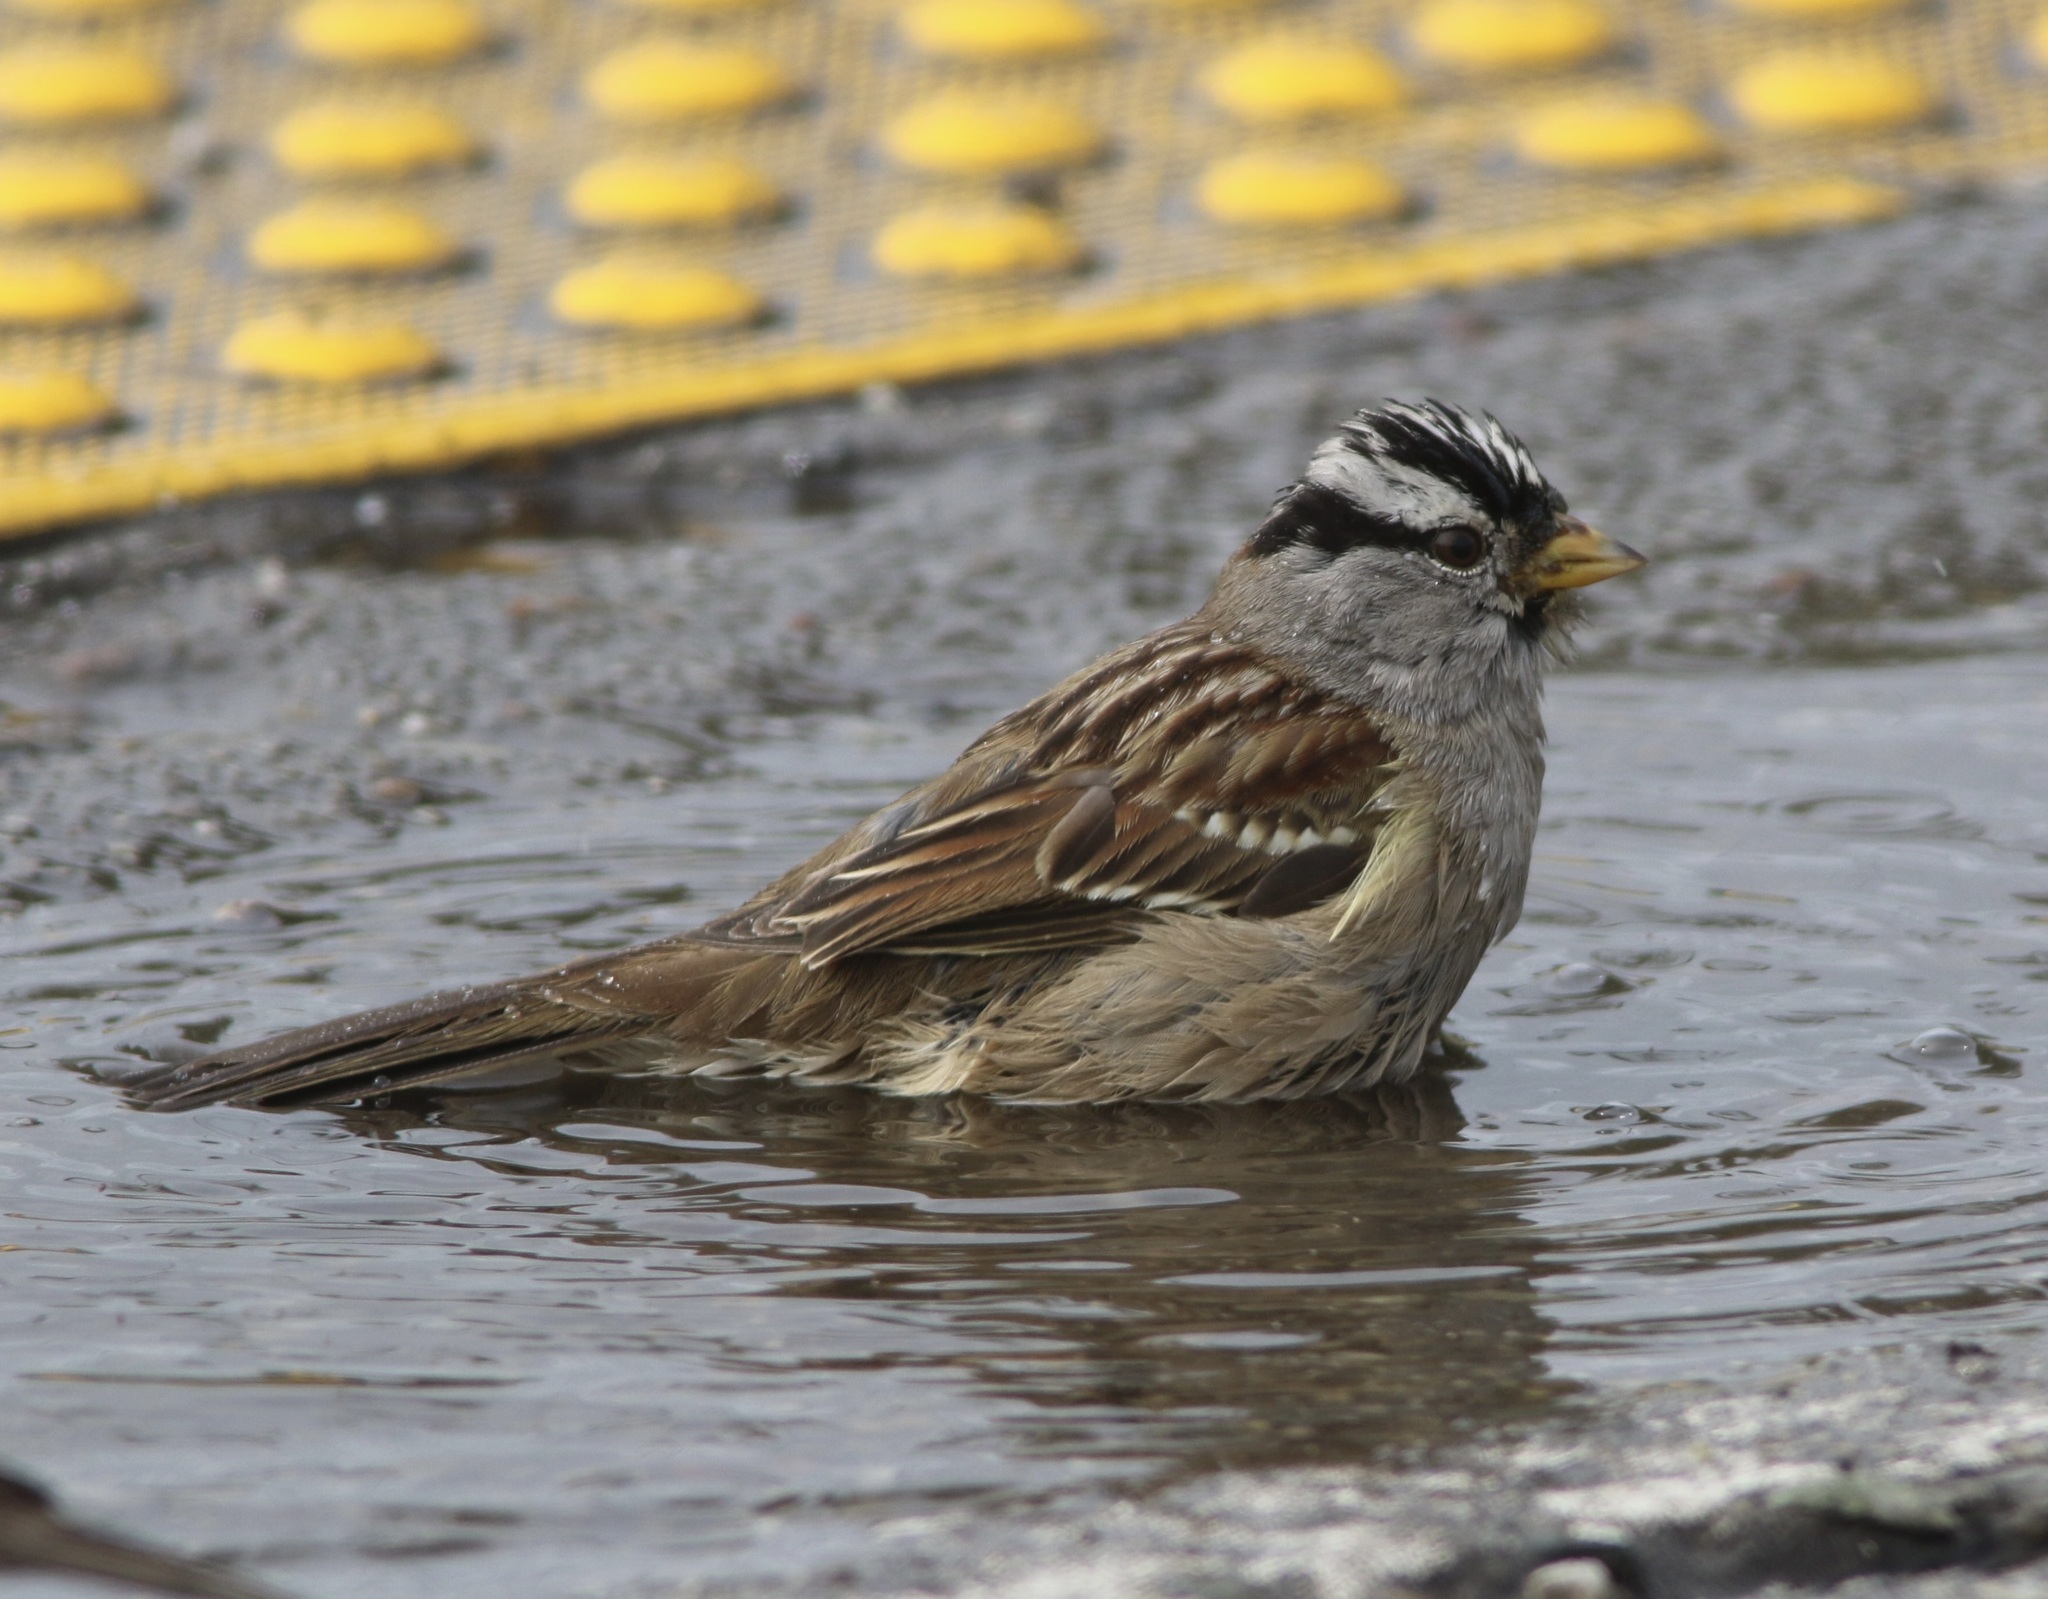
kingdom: Animalia
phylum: Chordata
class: Aves
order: Passeriformes
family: Passerellidae
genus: Zonotrichia
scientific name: Zonotrichia leucophrys
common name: White-crowned sparrow
